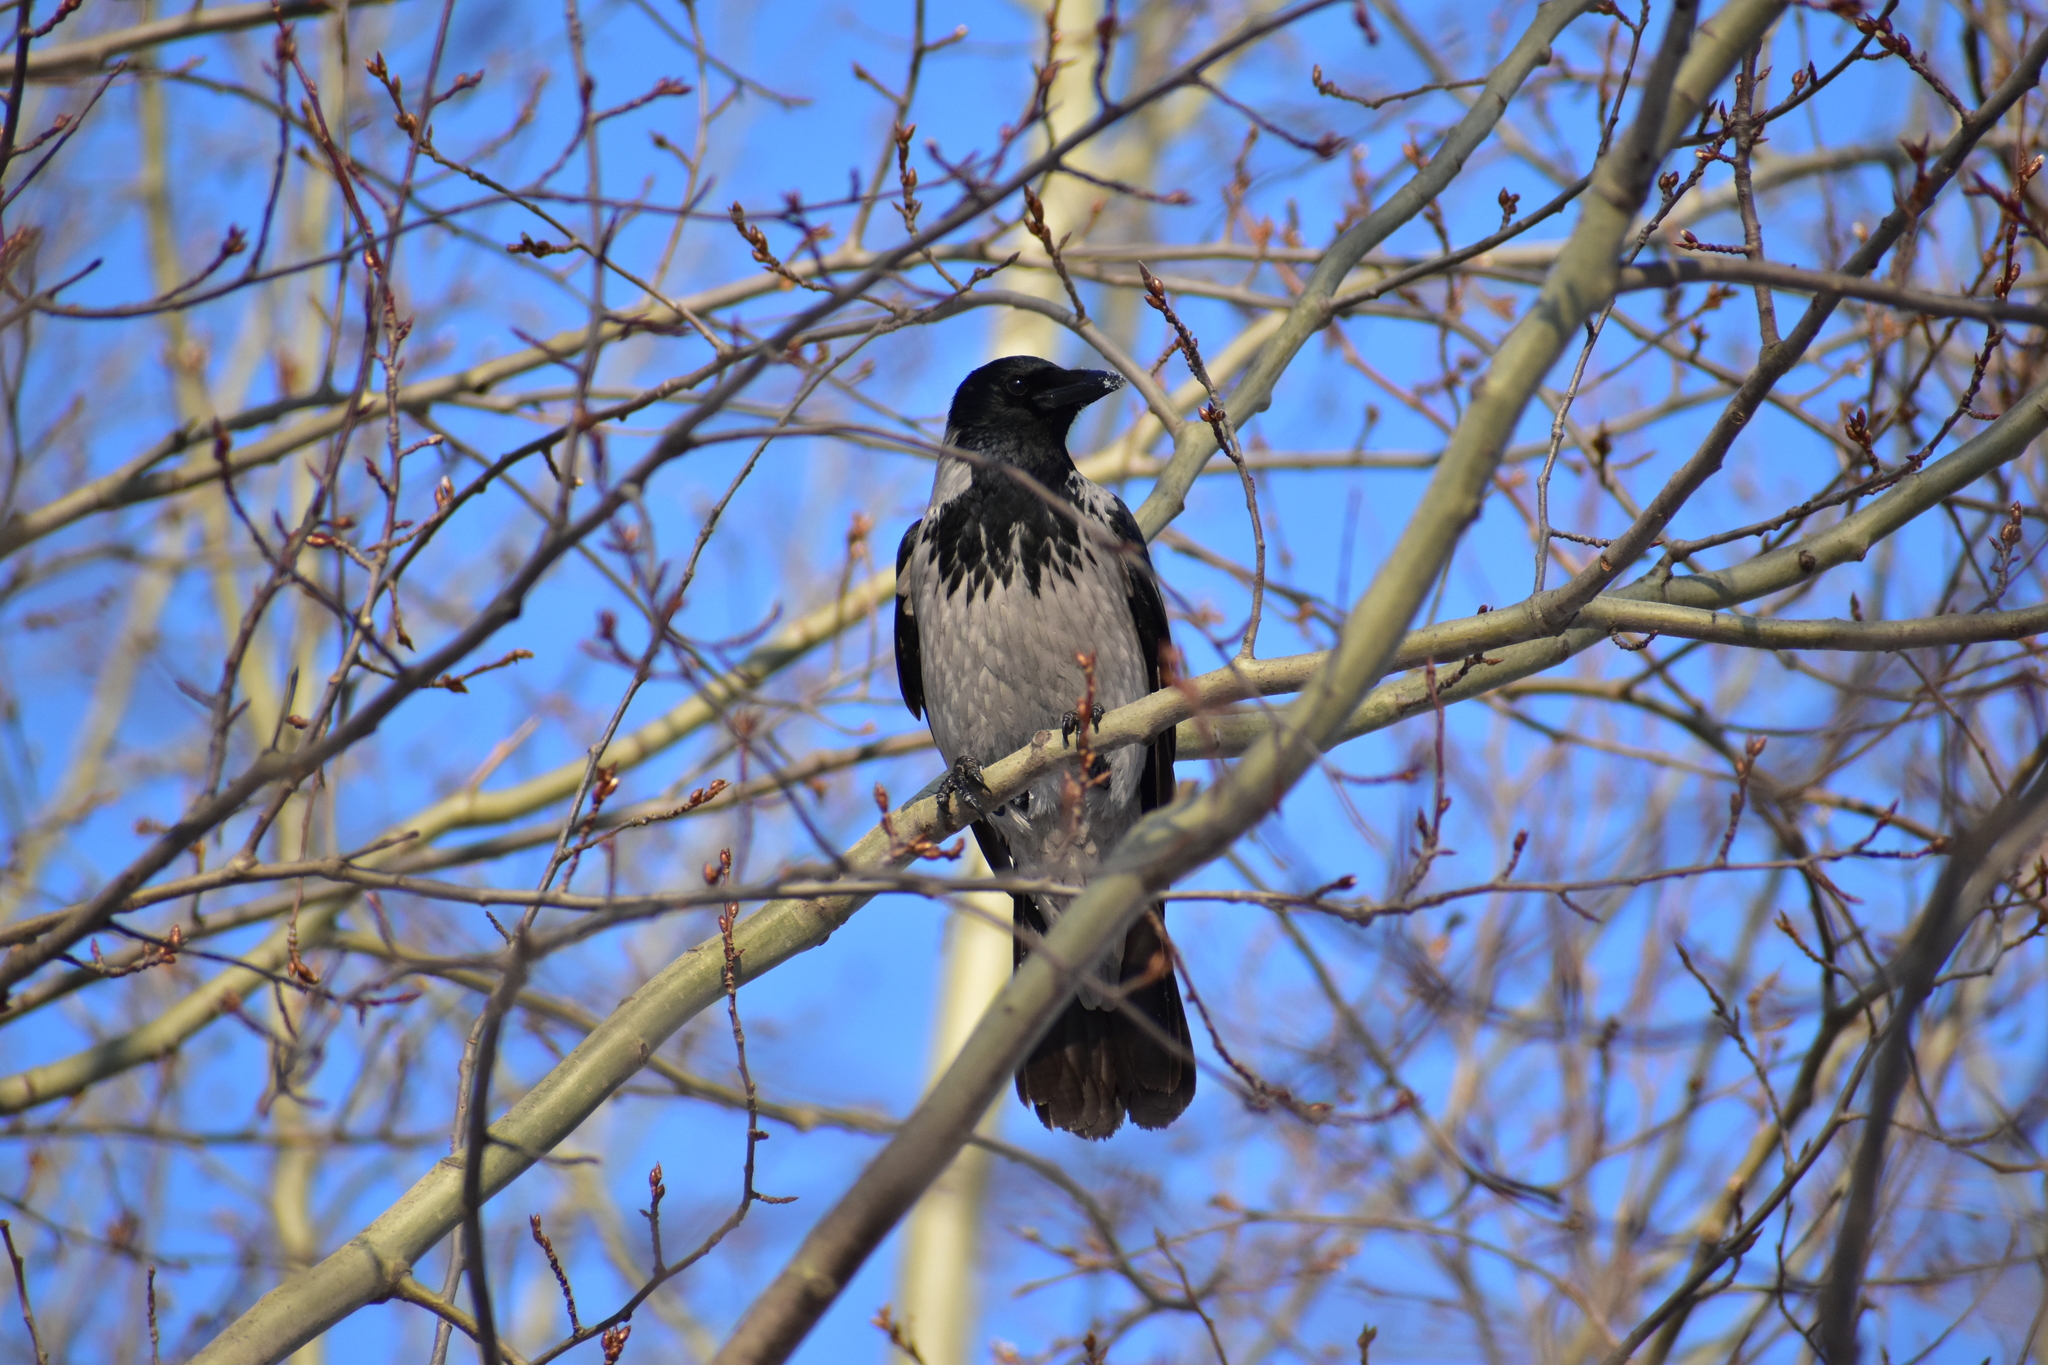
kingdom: Animalia
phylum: Chordata
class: Aves
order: Passeriformes
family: Corvidae
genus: Corvus
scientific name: Corvus cornix
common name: Hooded crow
